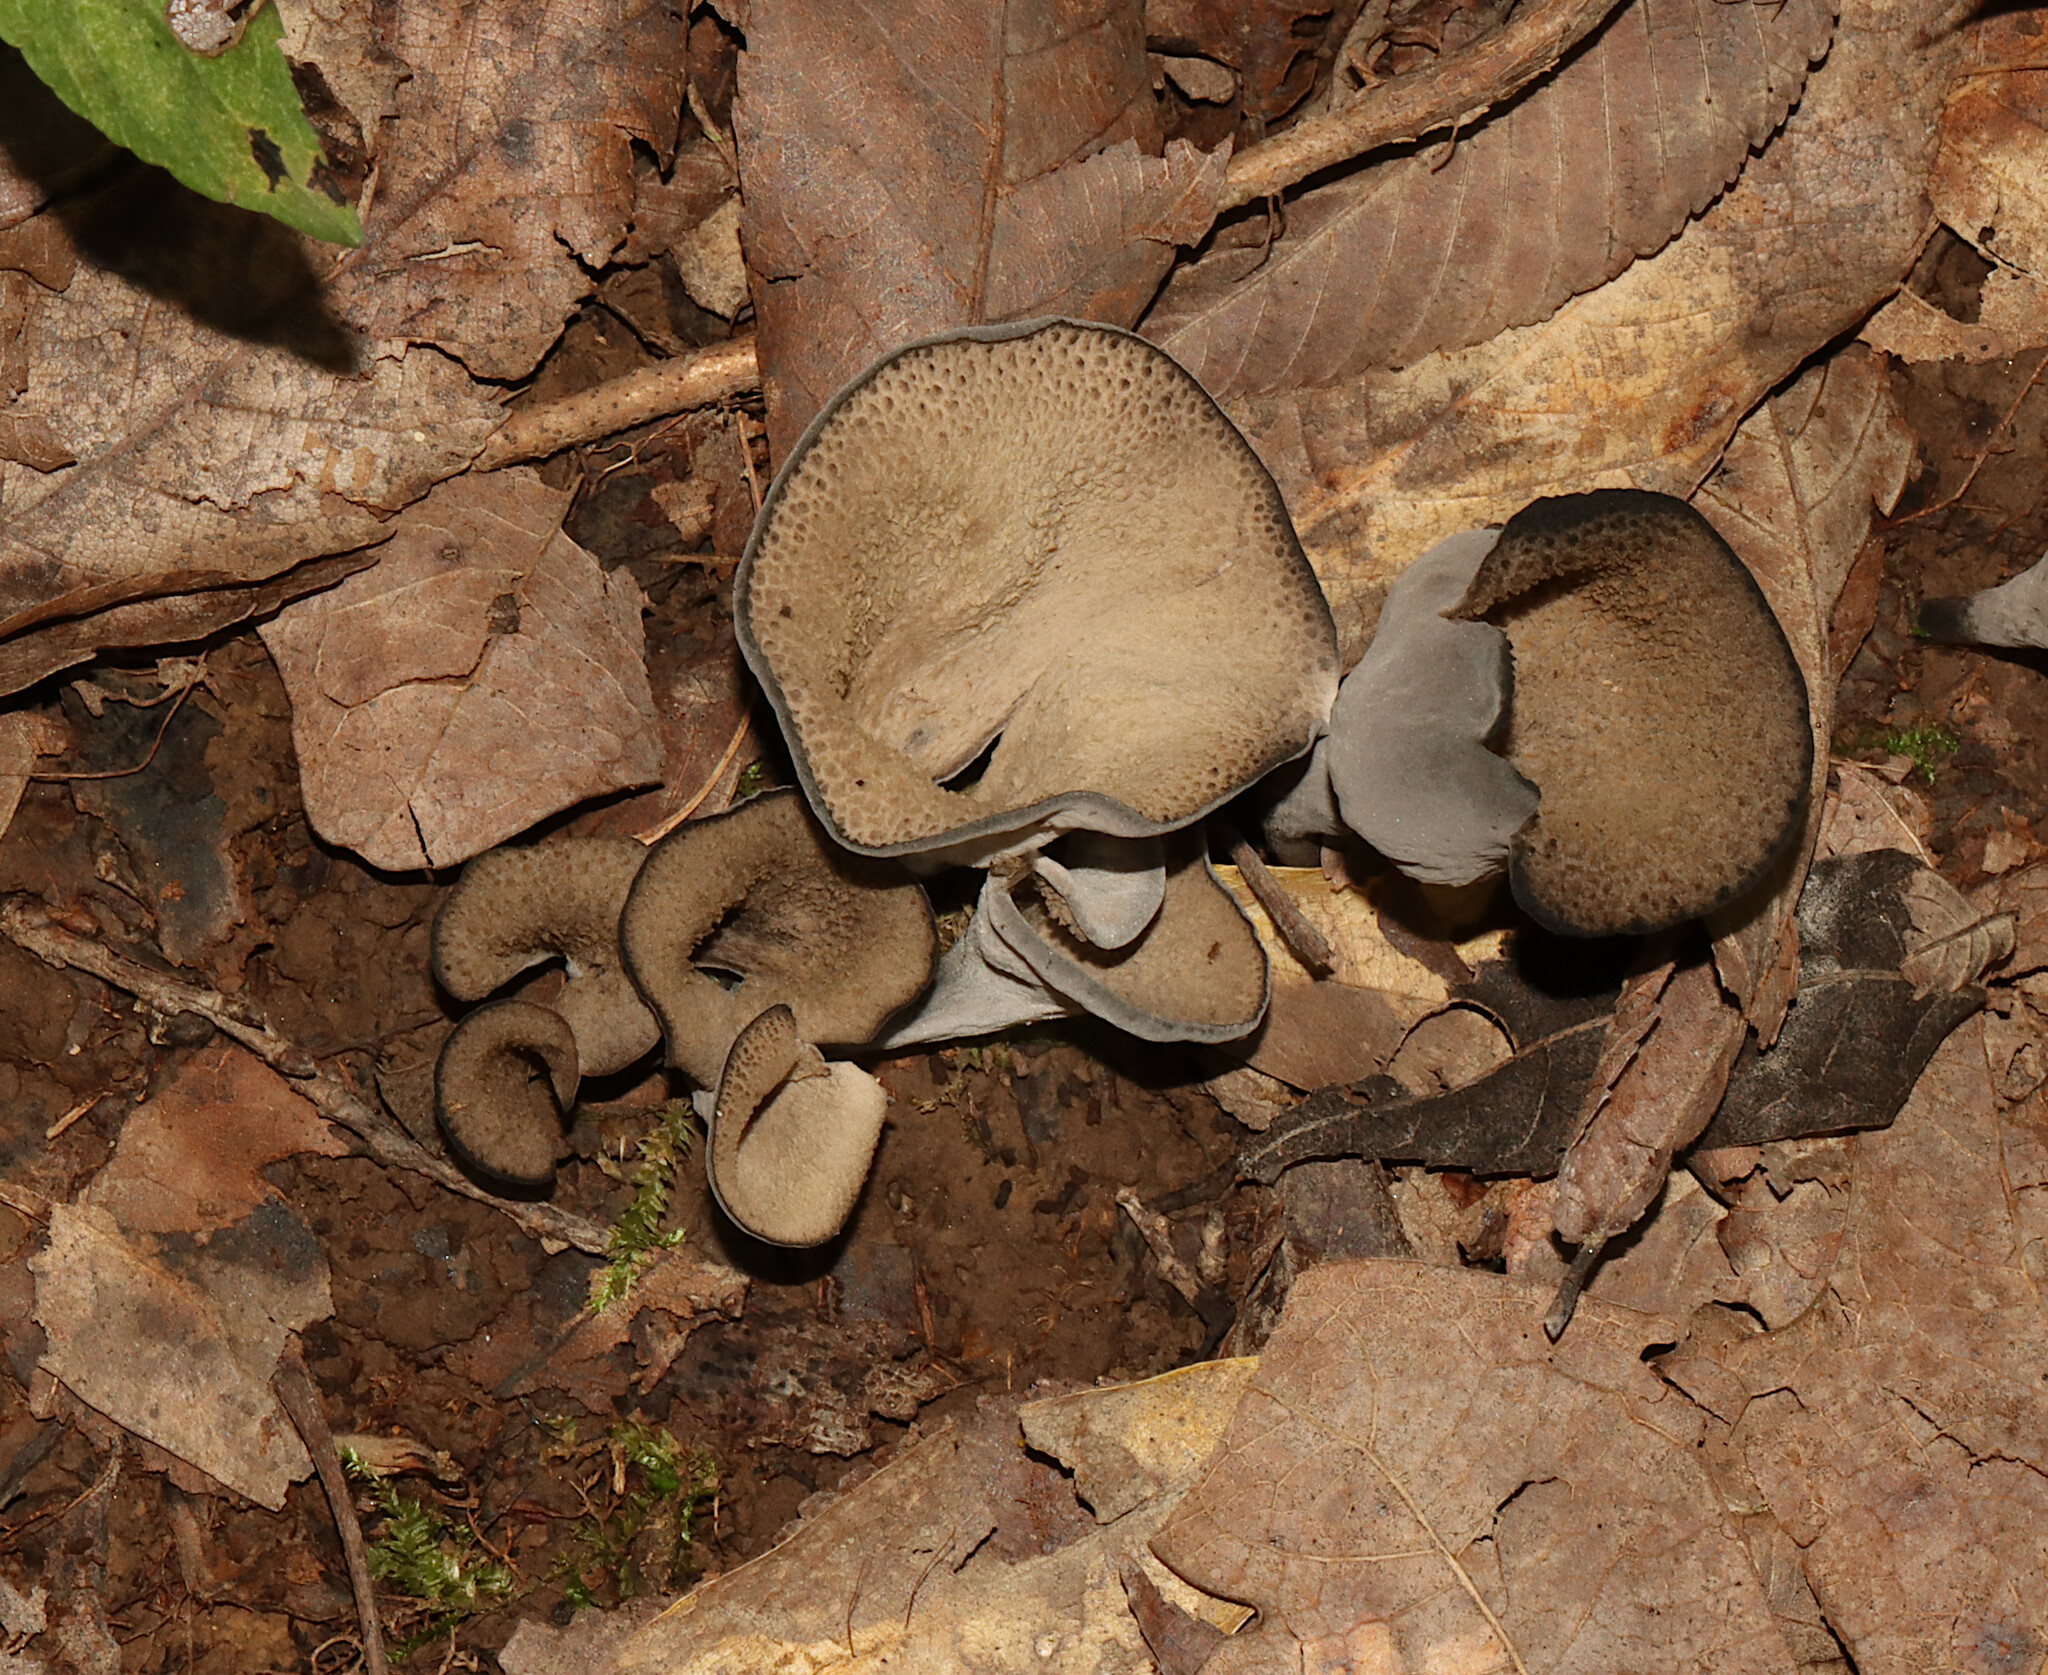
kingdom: Fungi
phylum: Basidiomycota
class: Agaricomycetes
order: Cantharellales
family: Hydnaceae
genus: Craterellus
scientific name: Craterellus cornucopioides
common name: Horn of plenty
